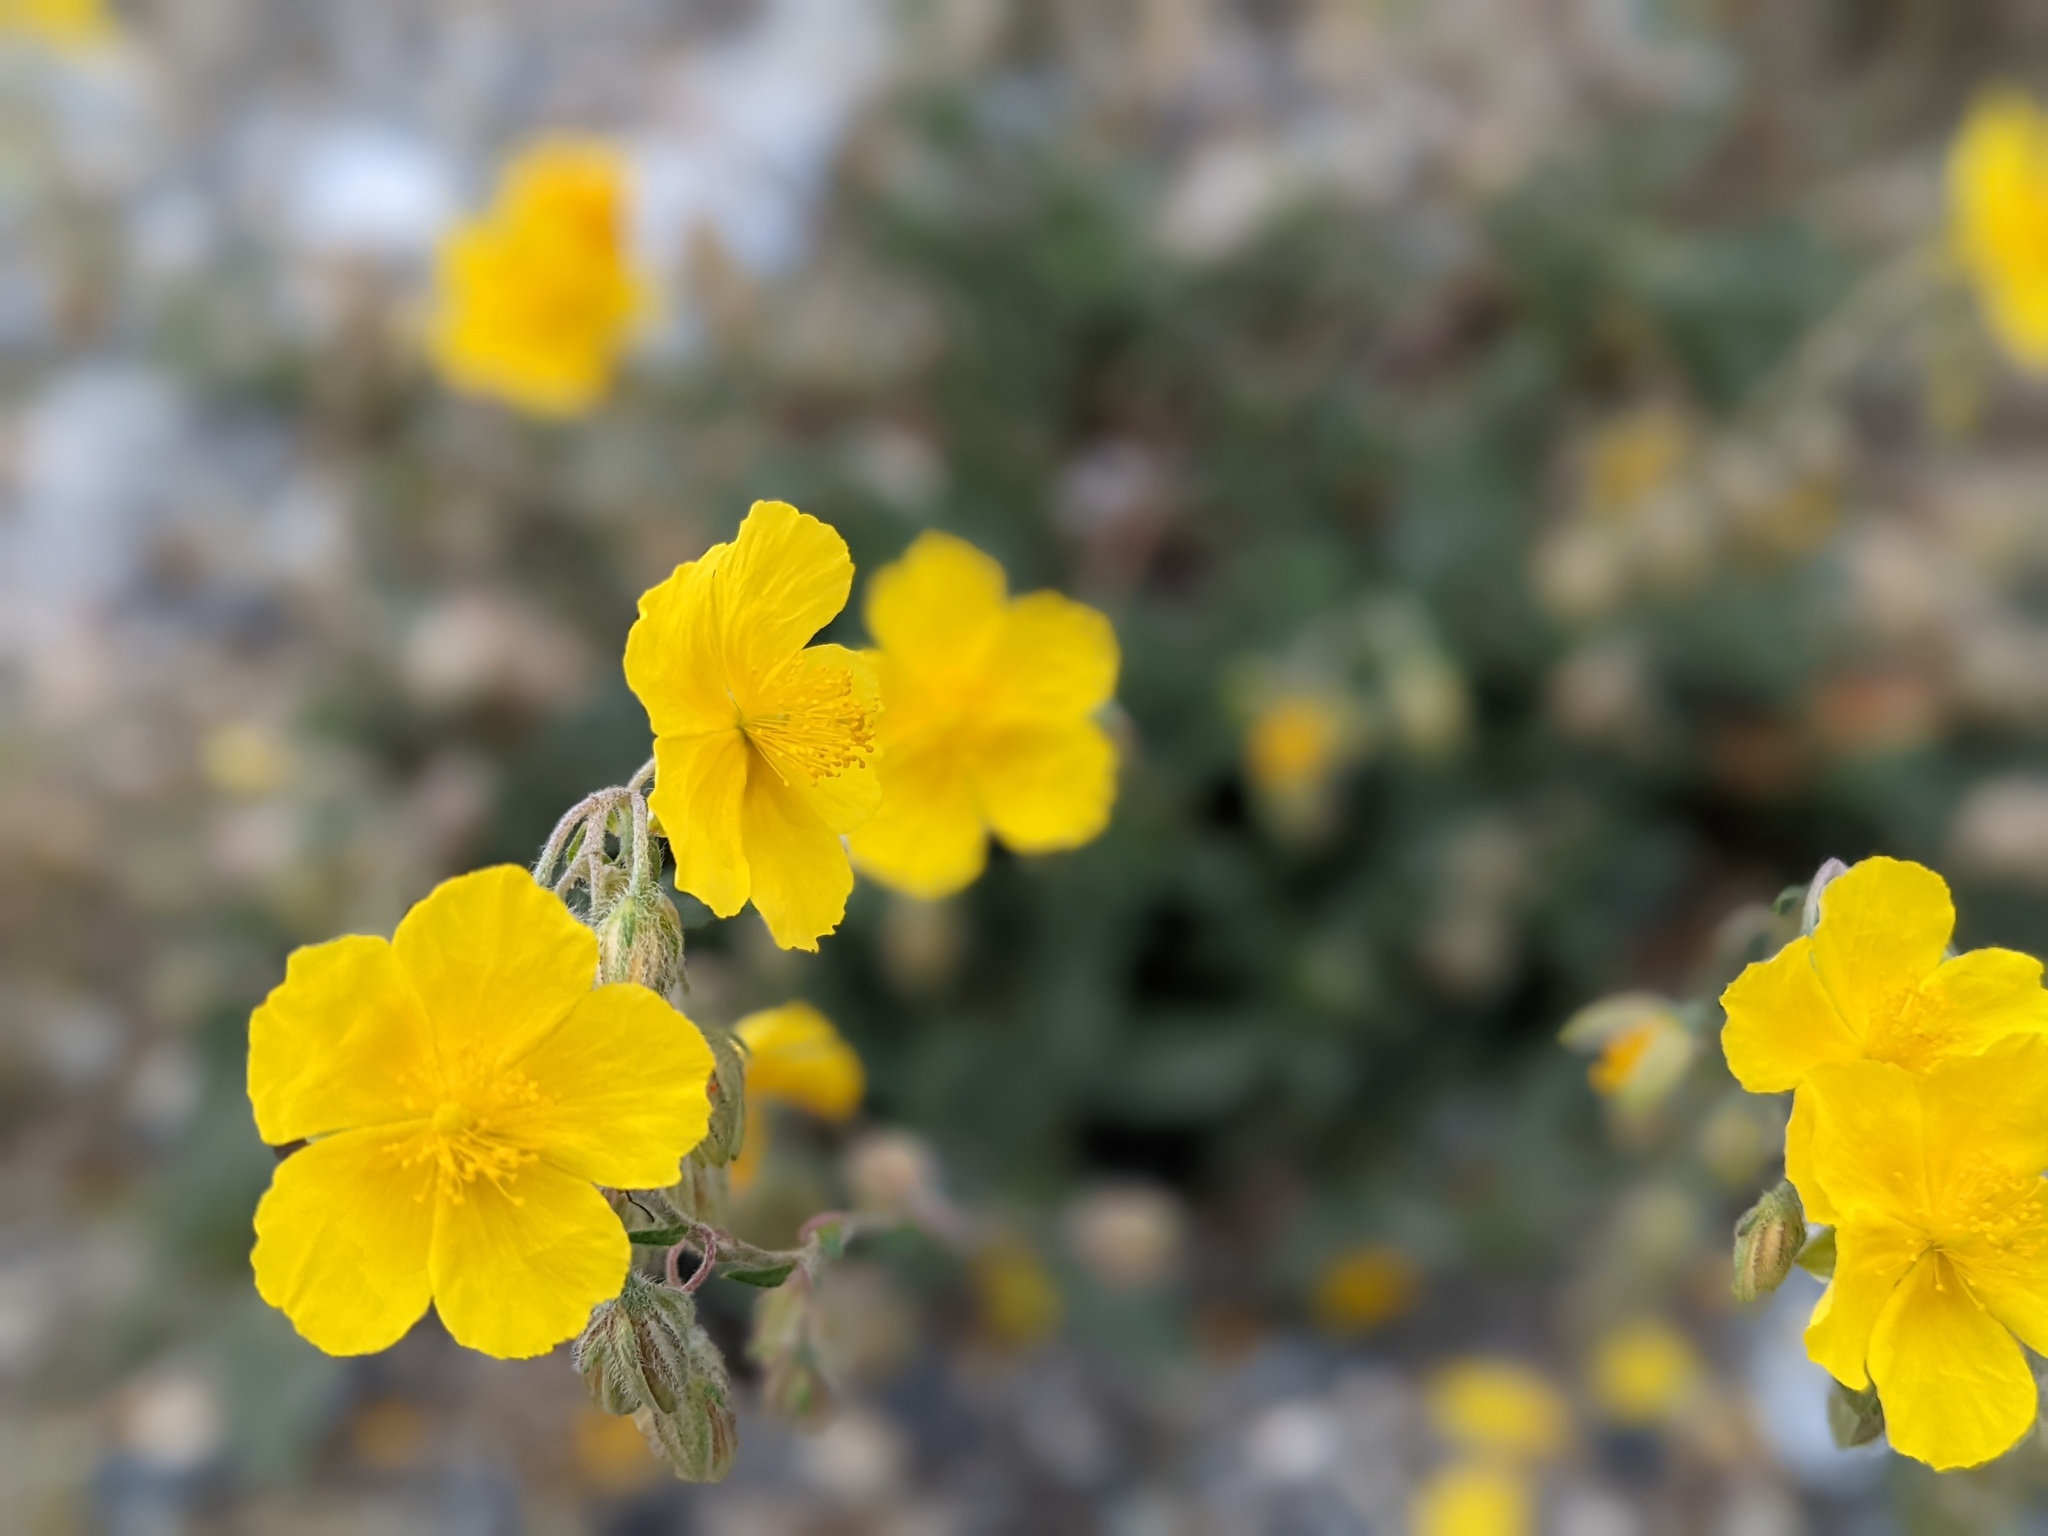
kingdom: Plantae
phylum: Tracheophyta
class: Magnoliopsida
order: Malvales
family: Cistaceae
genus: Helianthemum
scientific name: Helianthemum nummularium
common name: Common rock-rose
